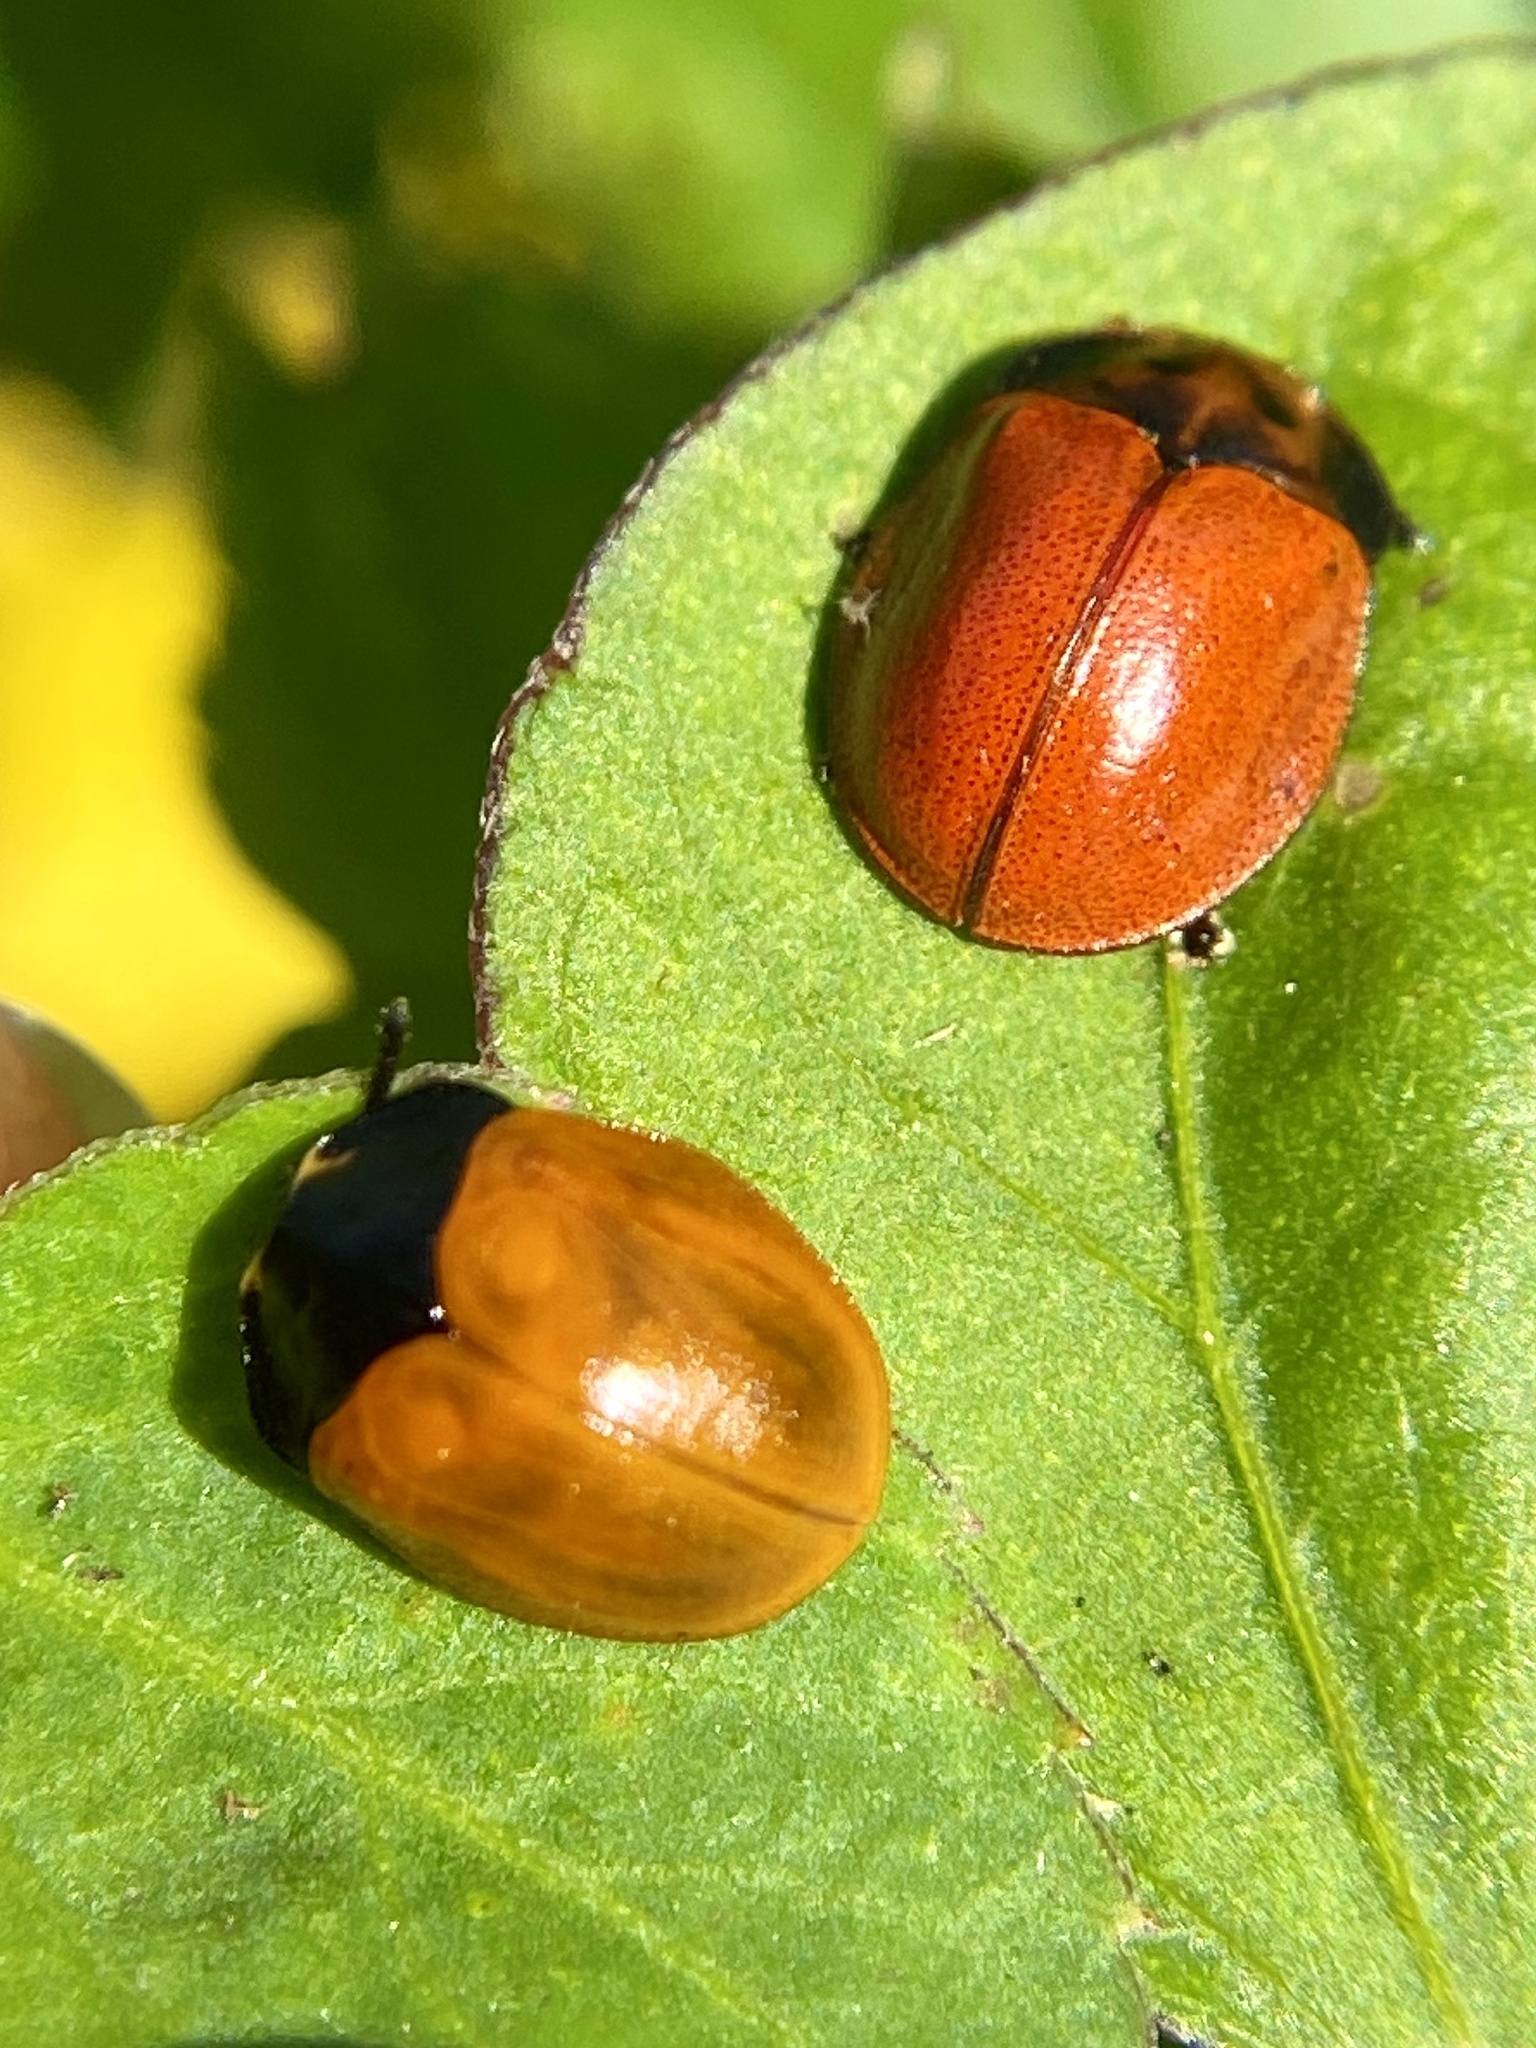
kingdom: Animalia
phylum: Arthropoda
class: Insecta
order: Coleoptera
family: Chrysomelidae
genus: Chelymorpha
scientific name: Chelymorpha cribraria
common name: Tortoise beetle
